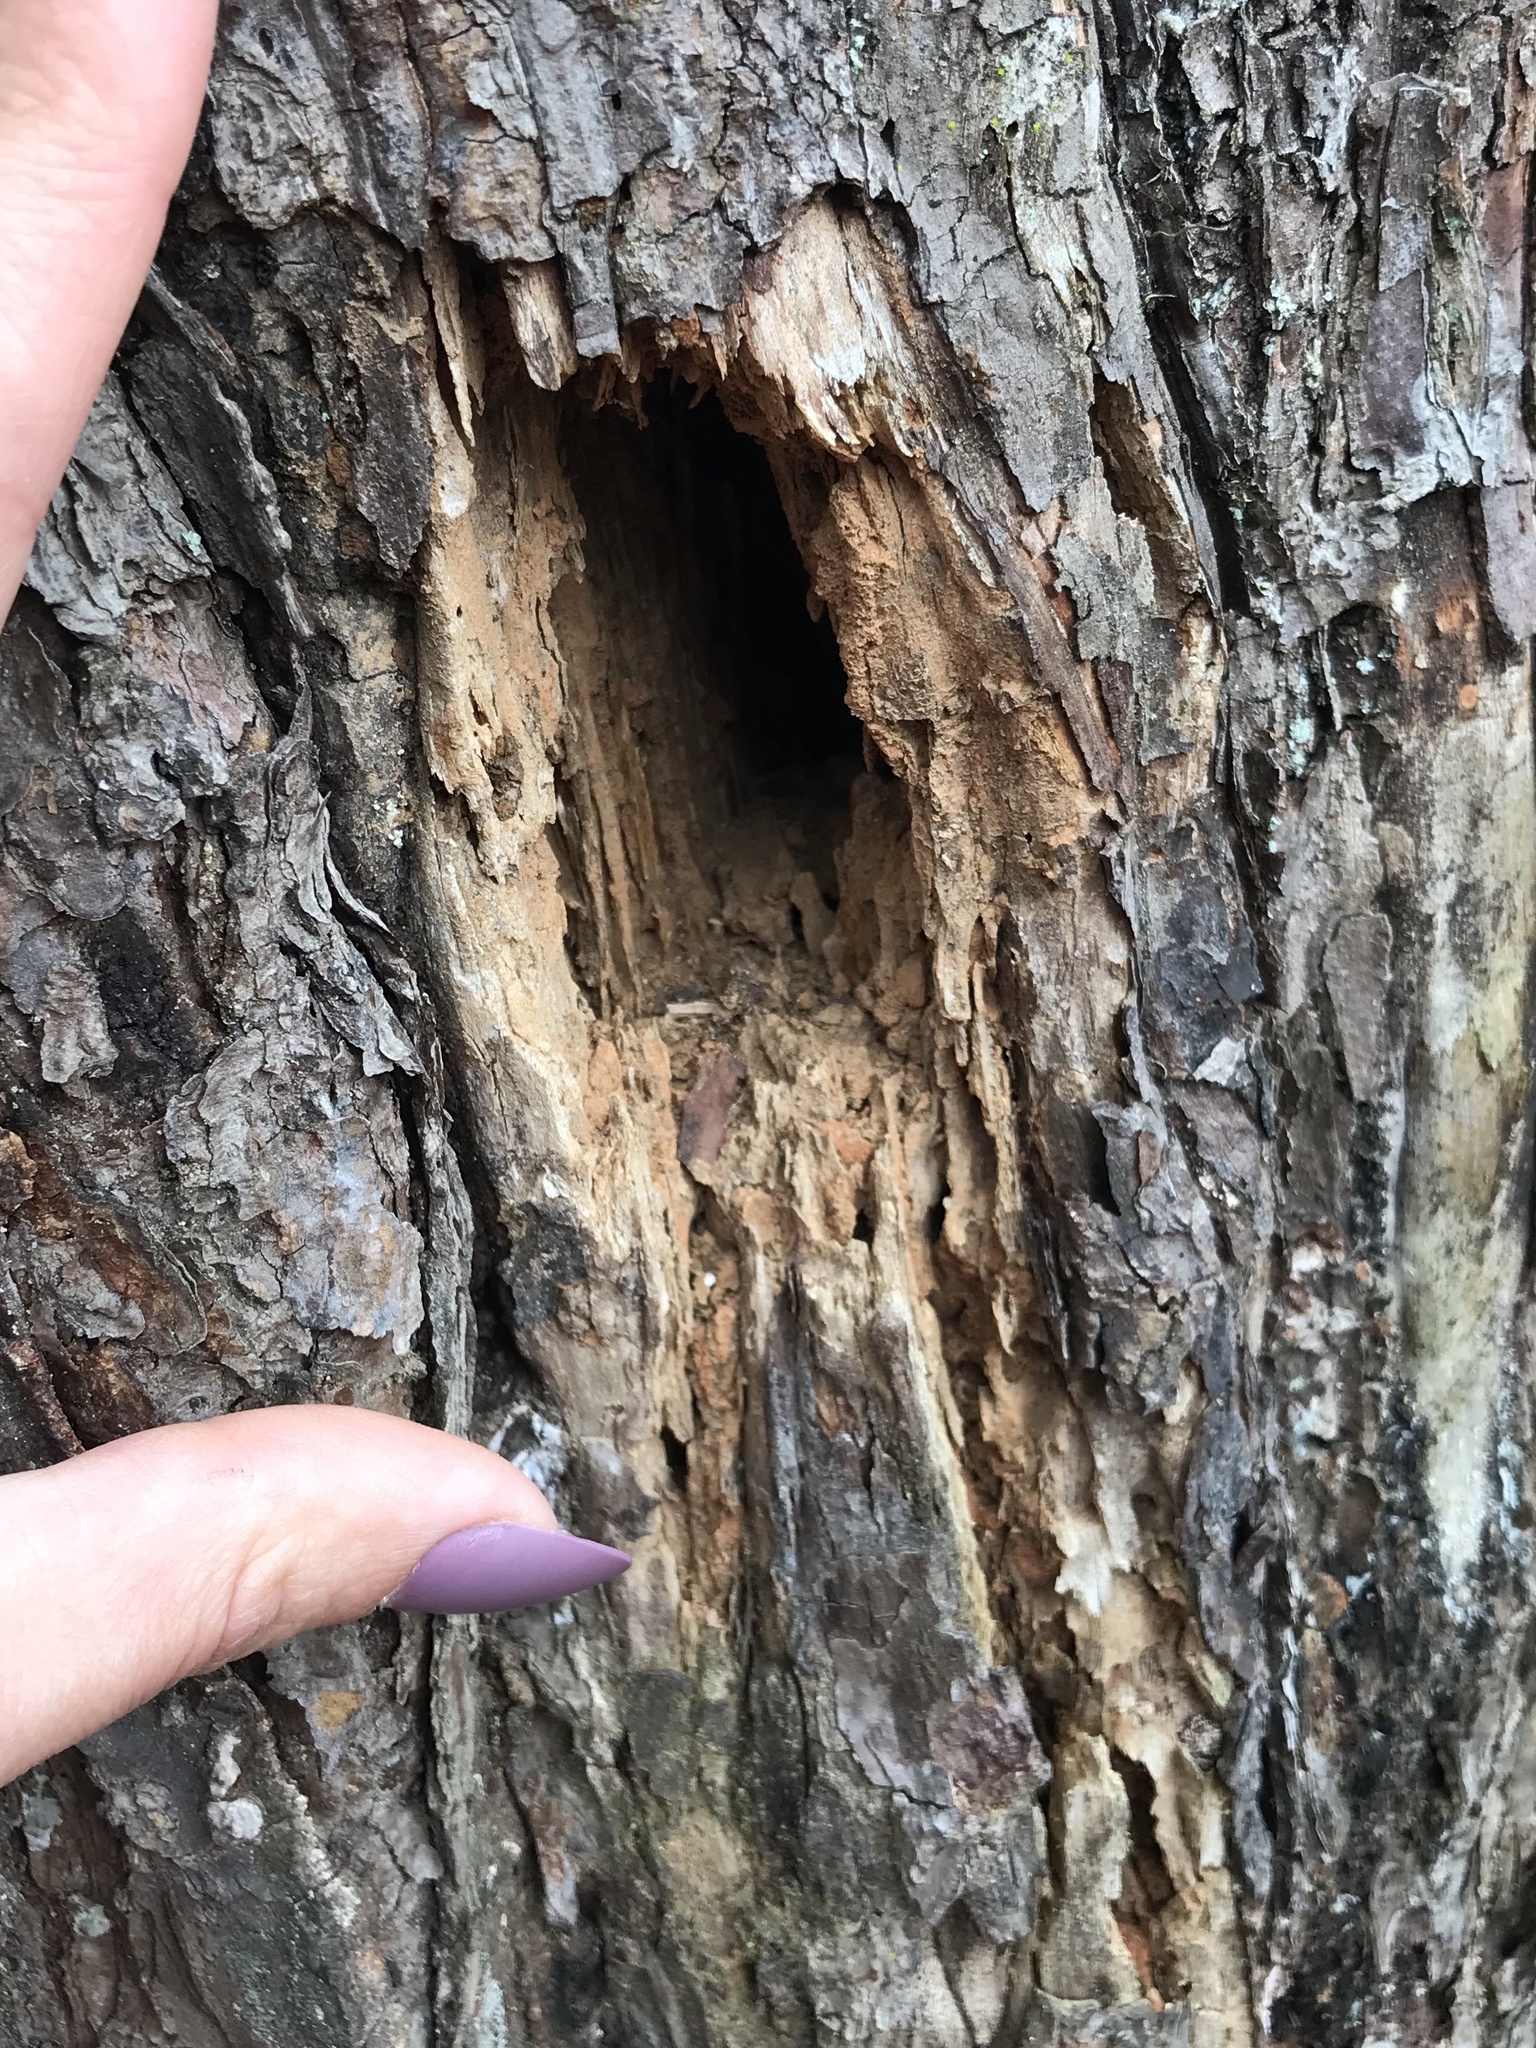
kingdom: Animalia
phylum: Chordata
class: Aves
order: Piciformes
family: Picidae
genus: Dryocopus
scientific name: Dryocopus pileatus
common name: Pileated woodpecker
